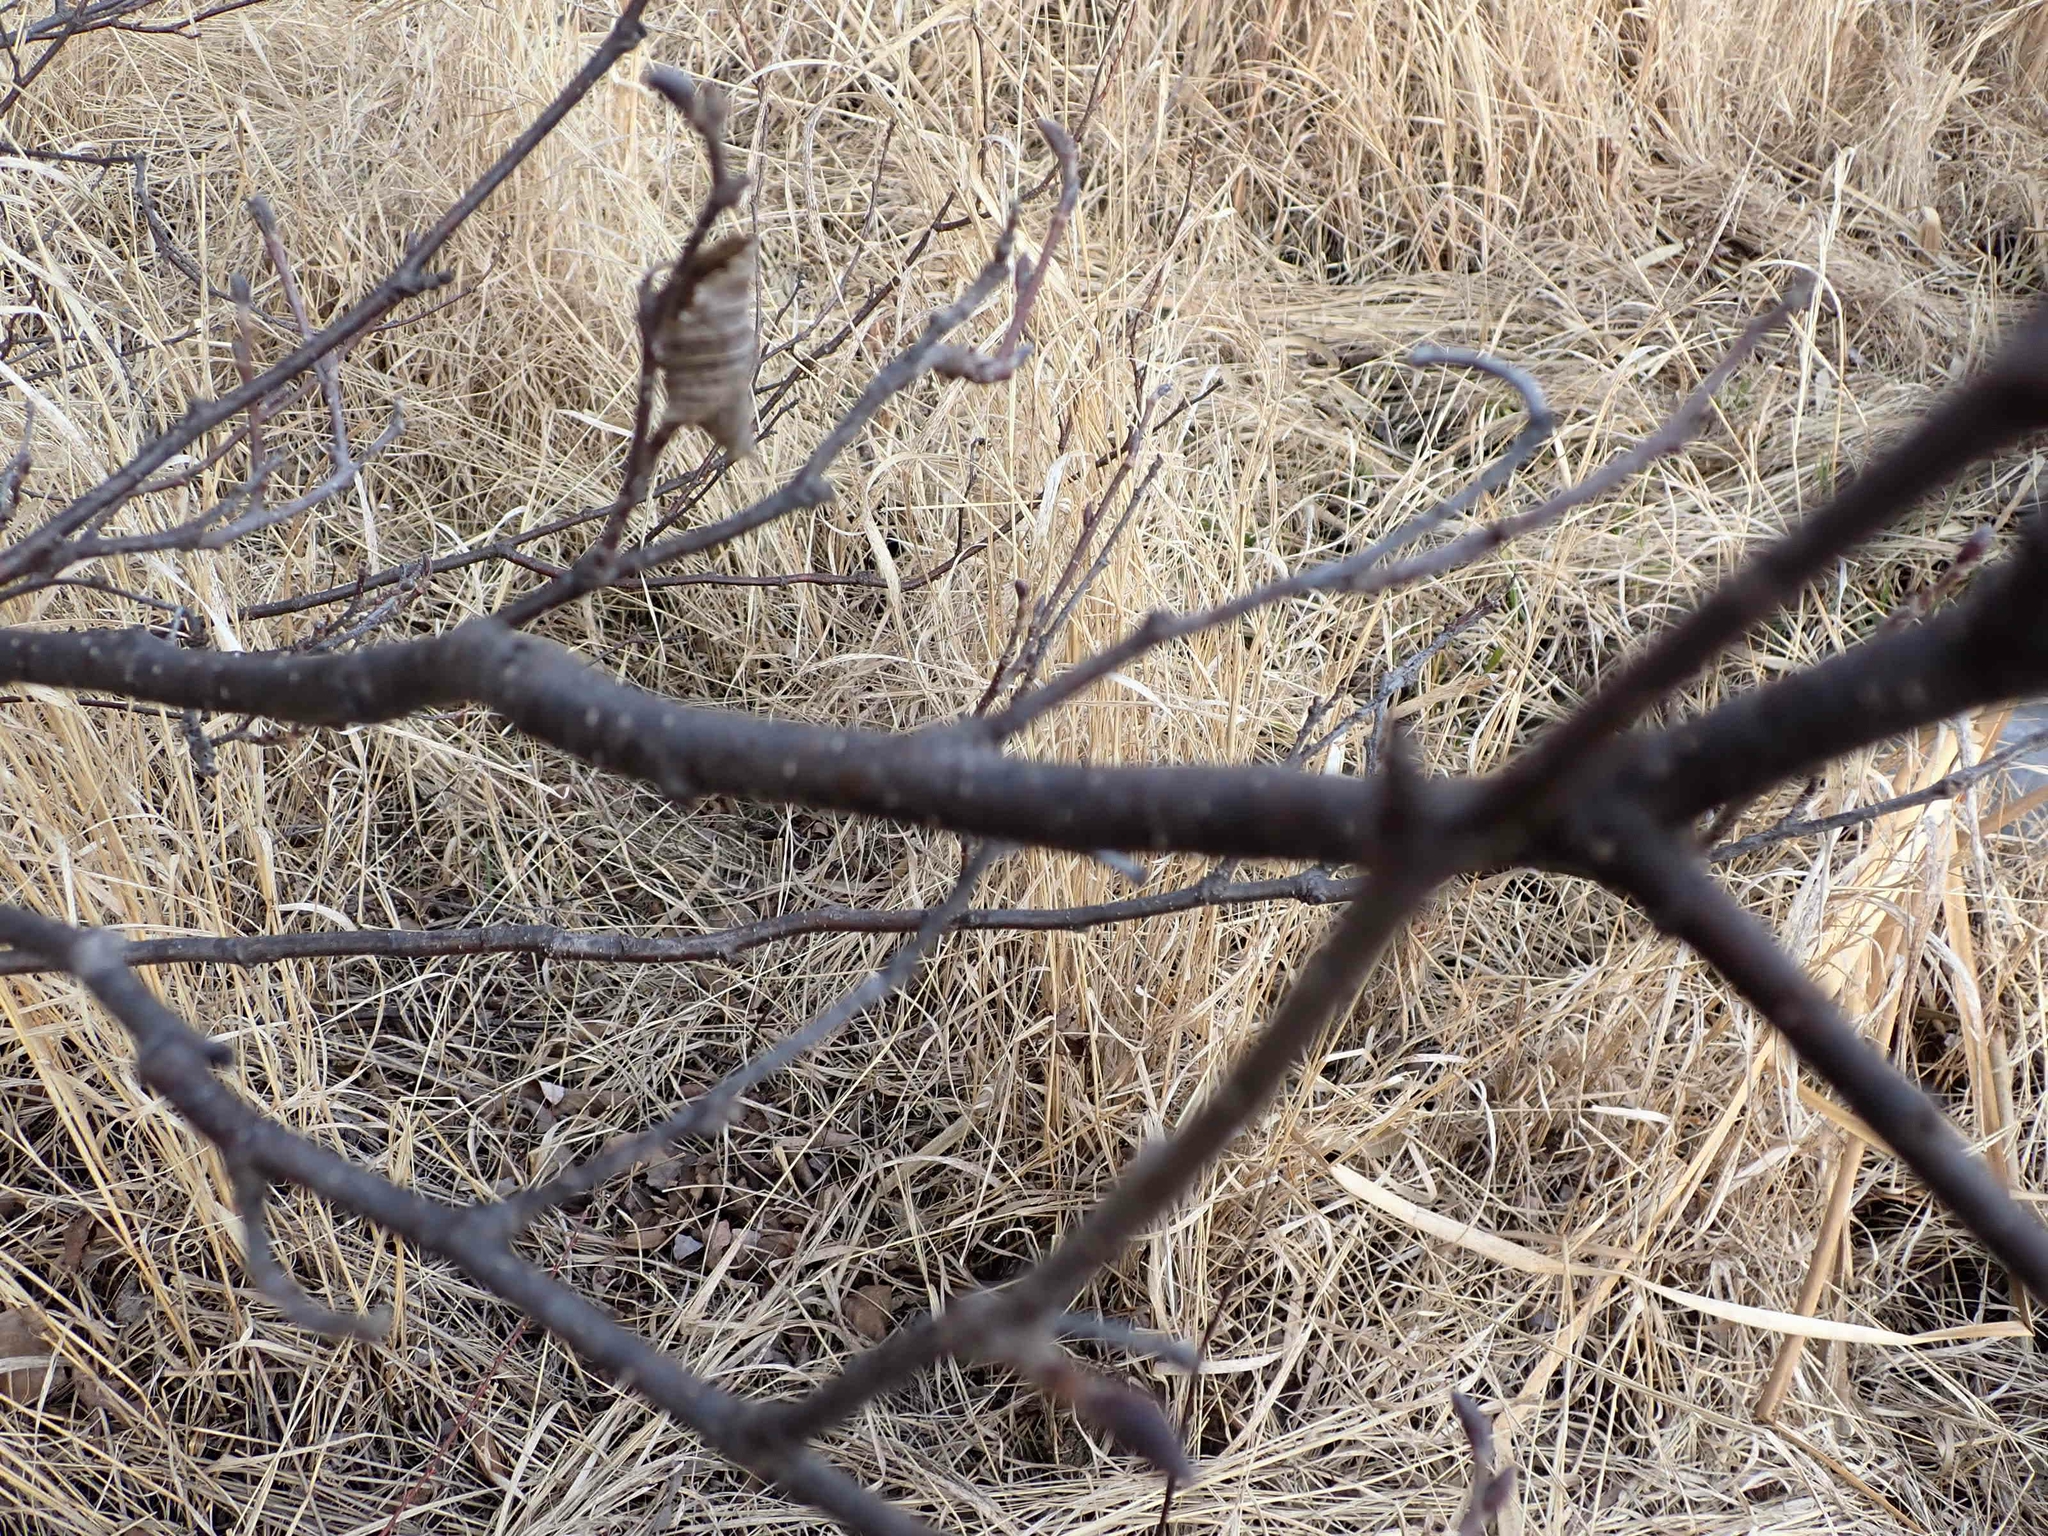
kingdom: Plantae
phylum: Tracheophyta
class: Magnoliopsida
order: Fagales
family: Betulaceae
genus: Alnus
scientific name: Alnus incana
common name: Grey alder
